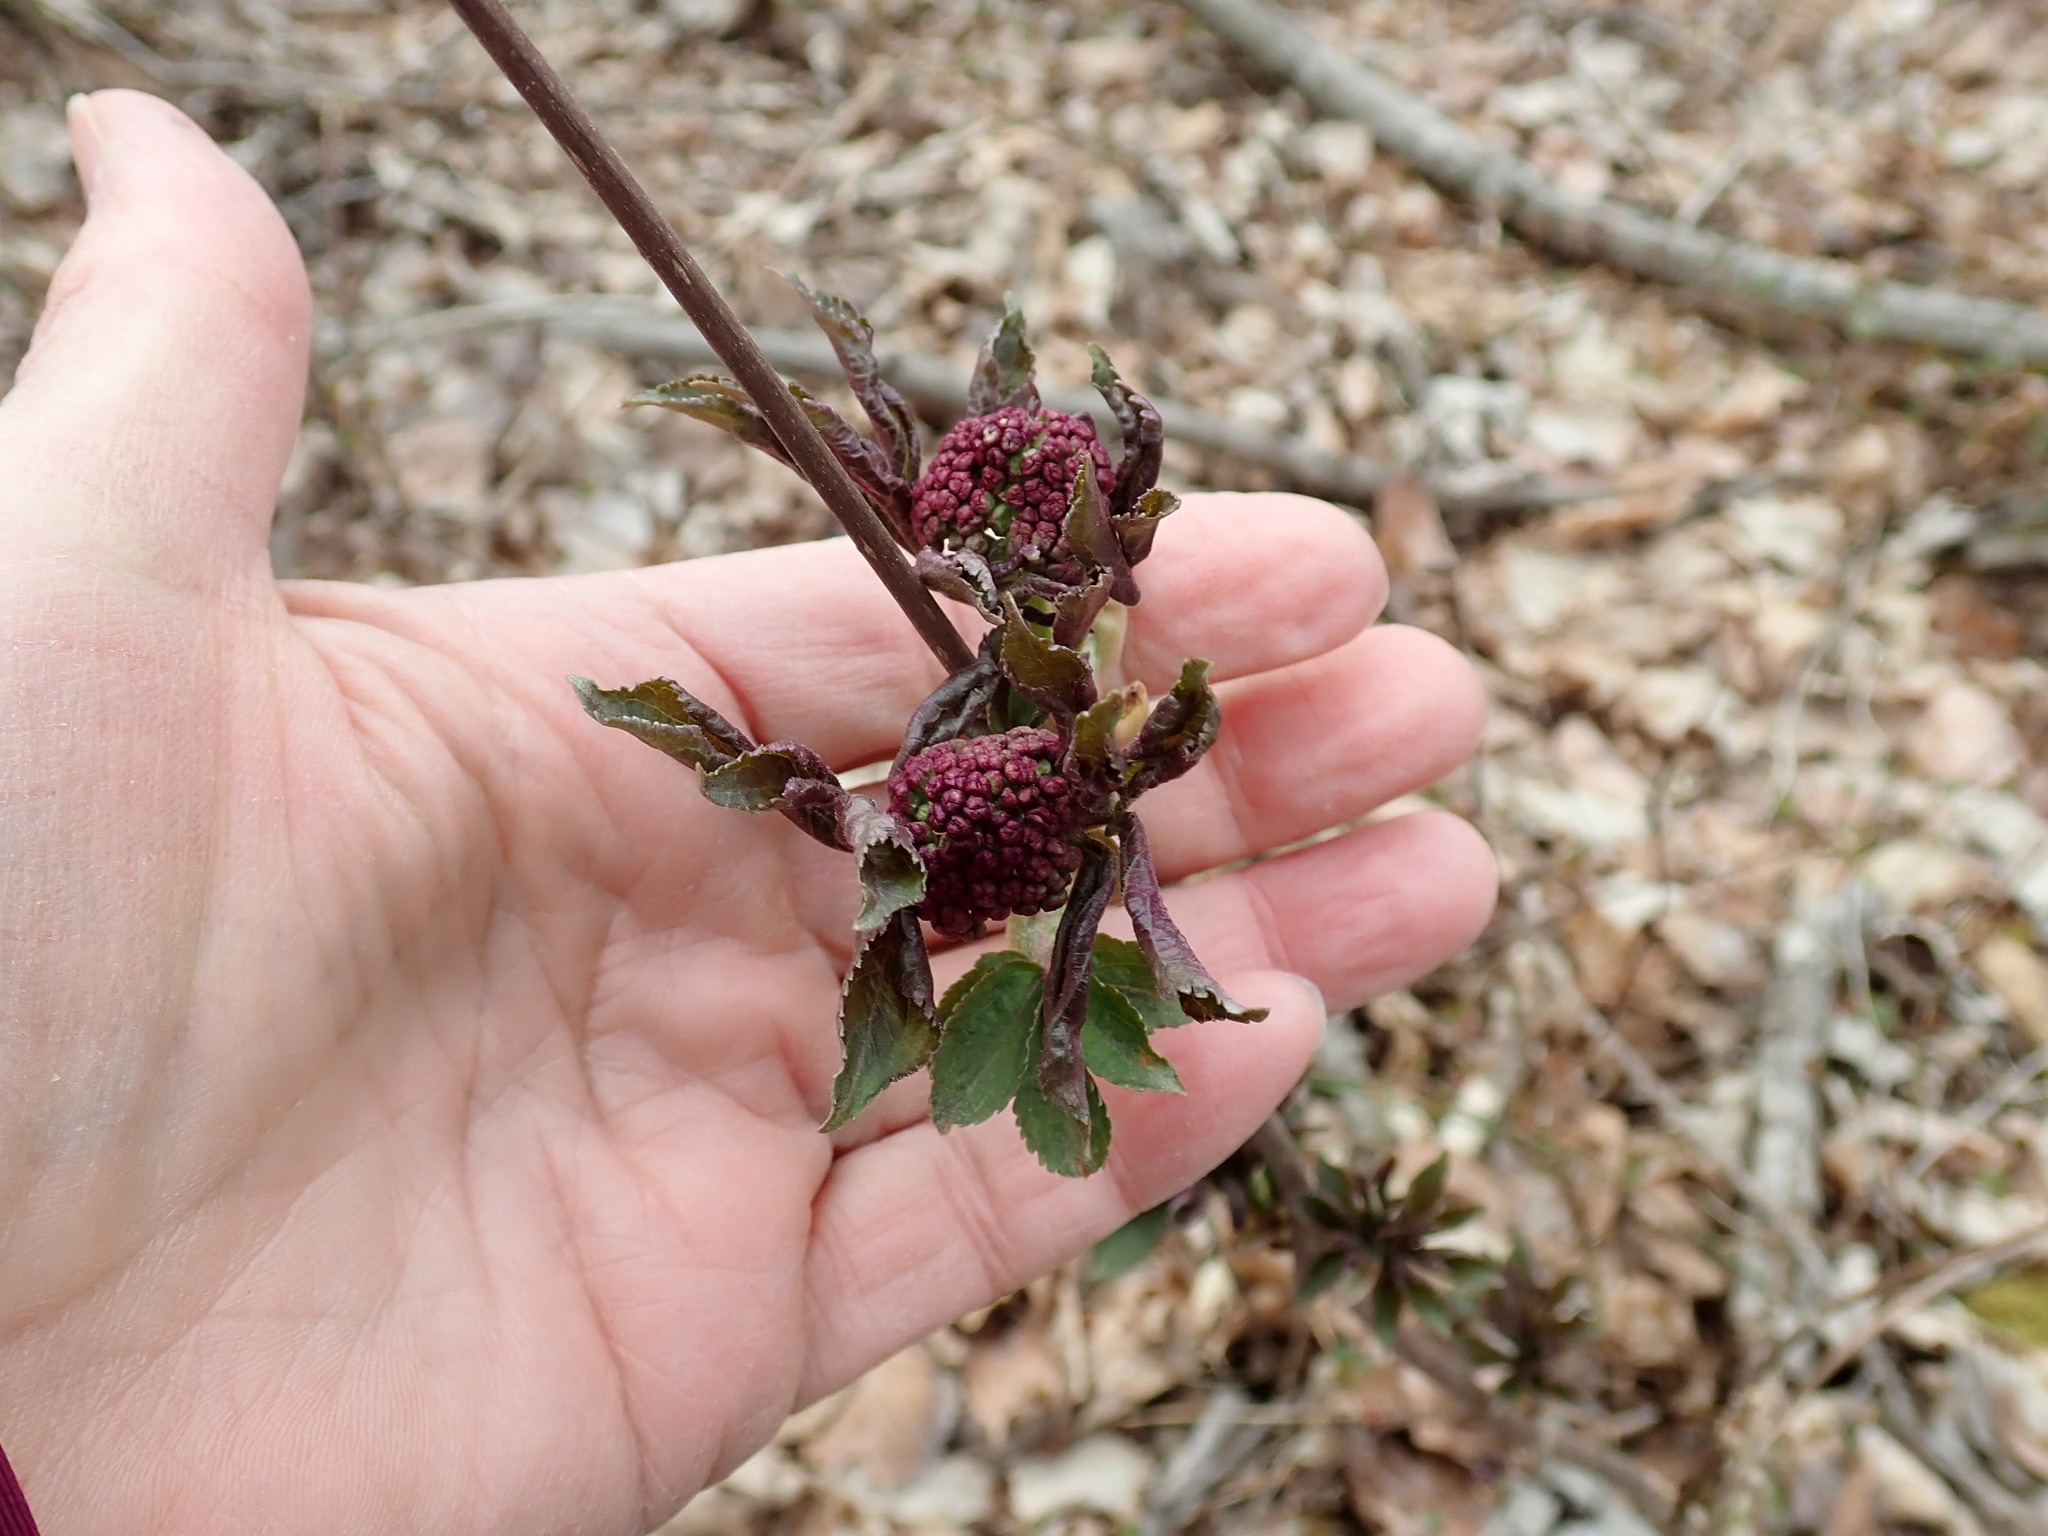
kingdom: Plantae
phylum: Tracheophyta
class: Magnoliopsida
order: Dipsacales
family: Viburnaceae
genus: Sambucus
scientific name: Sambucus racemosa
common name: Red-berried elder
